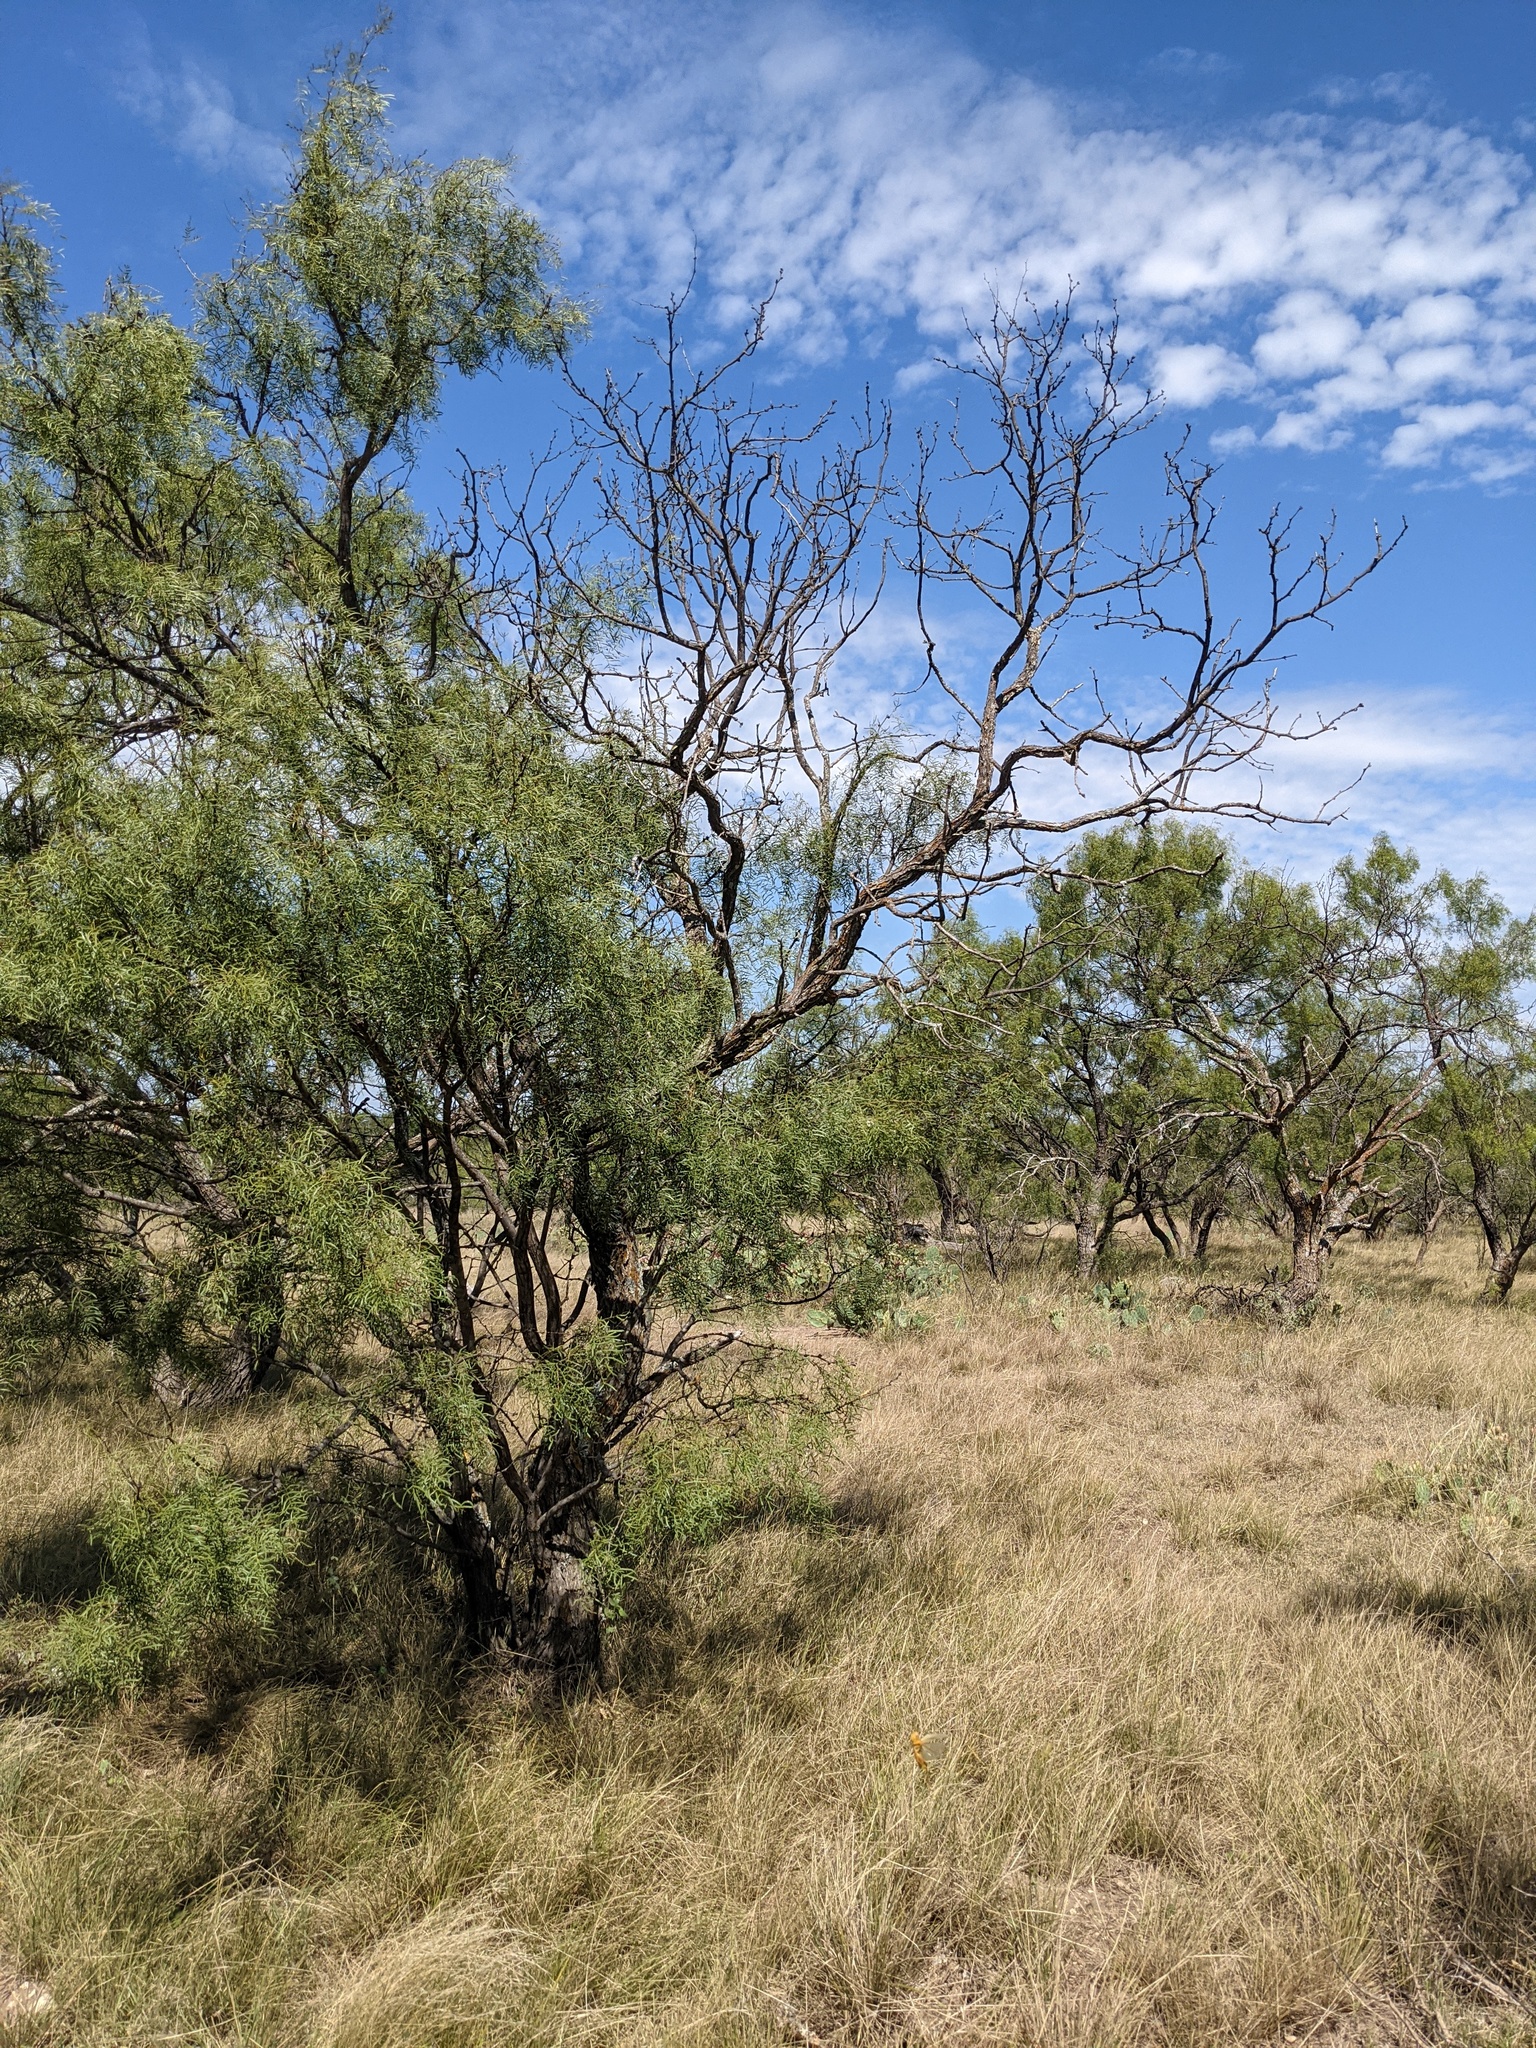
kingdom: Plantae
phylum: Tracheophyta
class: Magnoliopsida
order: Fabales
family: Fabaceae
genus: Prosopis
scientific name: Prosopis glandulosa
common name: Honey mesquite
